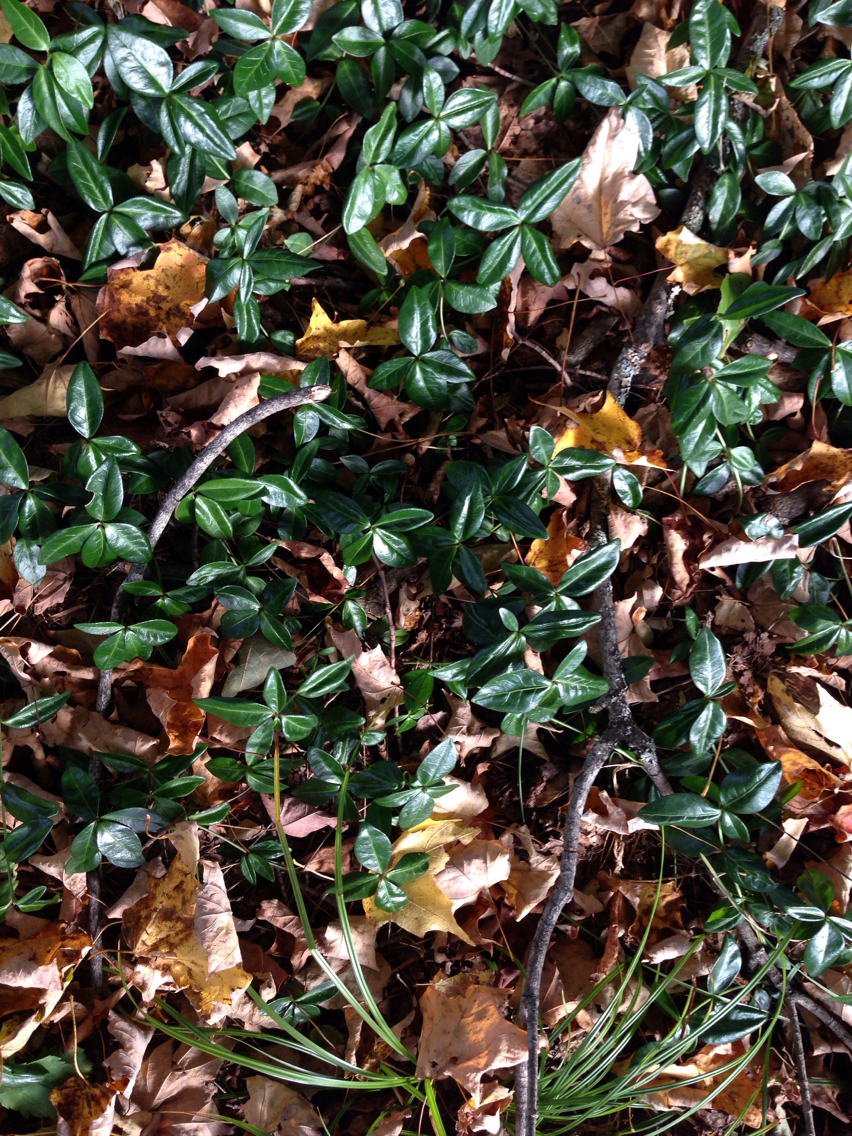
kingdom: Plantae
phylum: Tracheophyta
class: Magnoliopsida
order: Gentianales
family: Apocynaceae
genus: Vinca
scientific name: Vinca minor
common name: Lesser periwinkle
